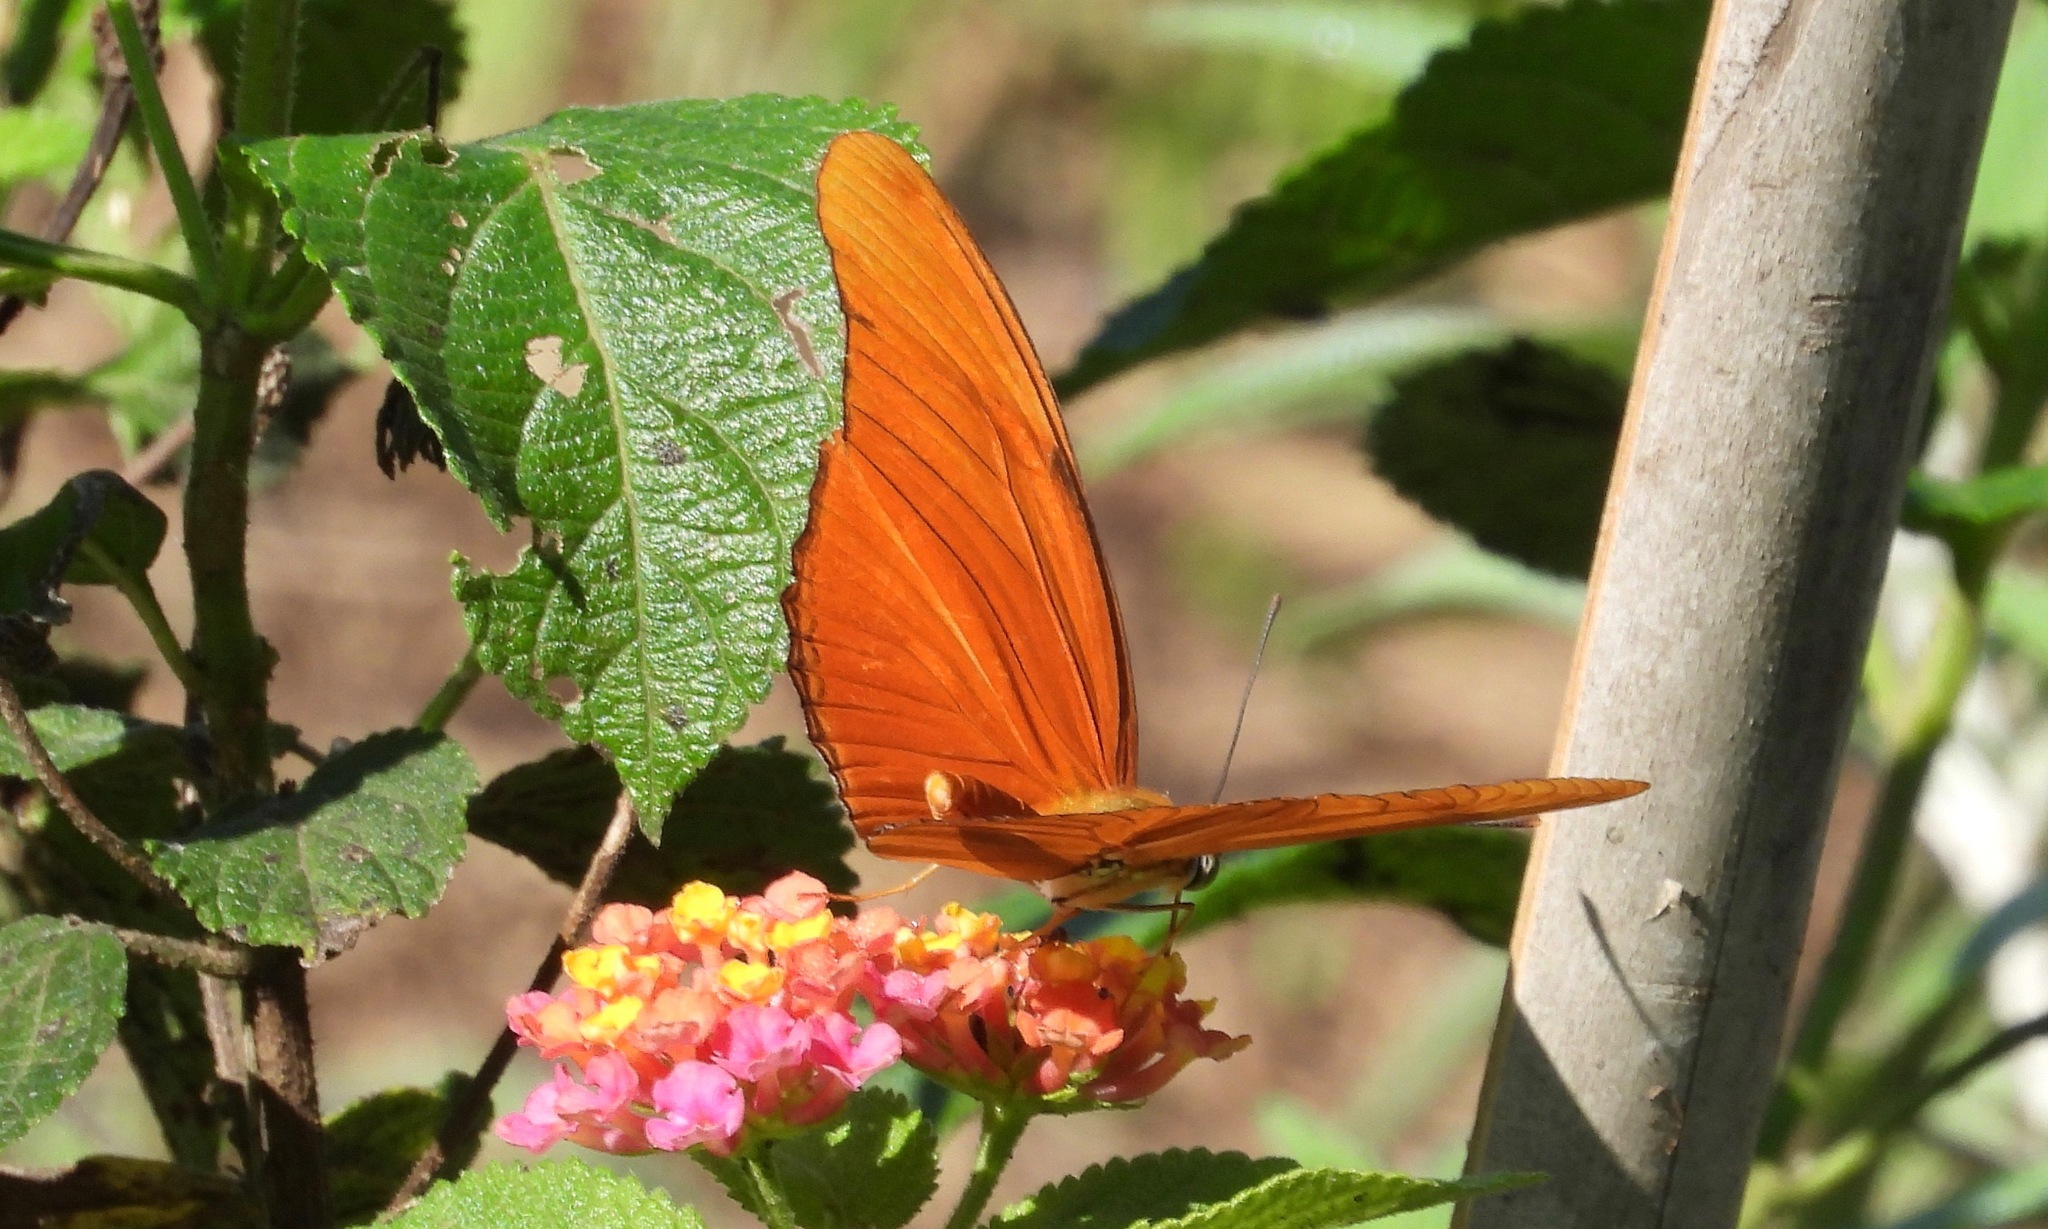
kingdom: Animalia
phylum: Arthropoda
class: Insecta
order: Lepidoptera
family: Nymphalidae
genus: Dryas
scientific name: Dryas iulia
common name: Flambeau
